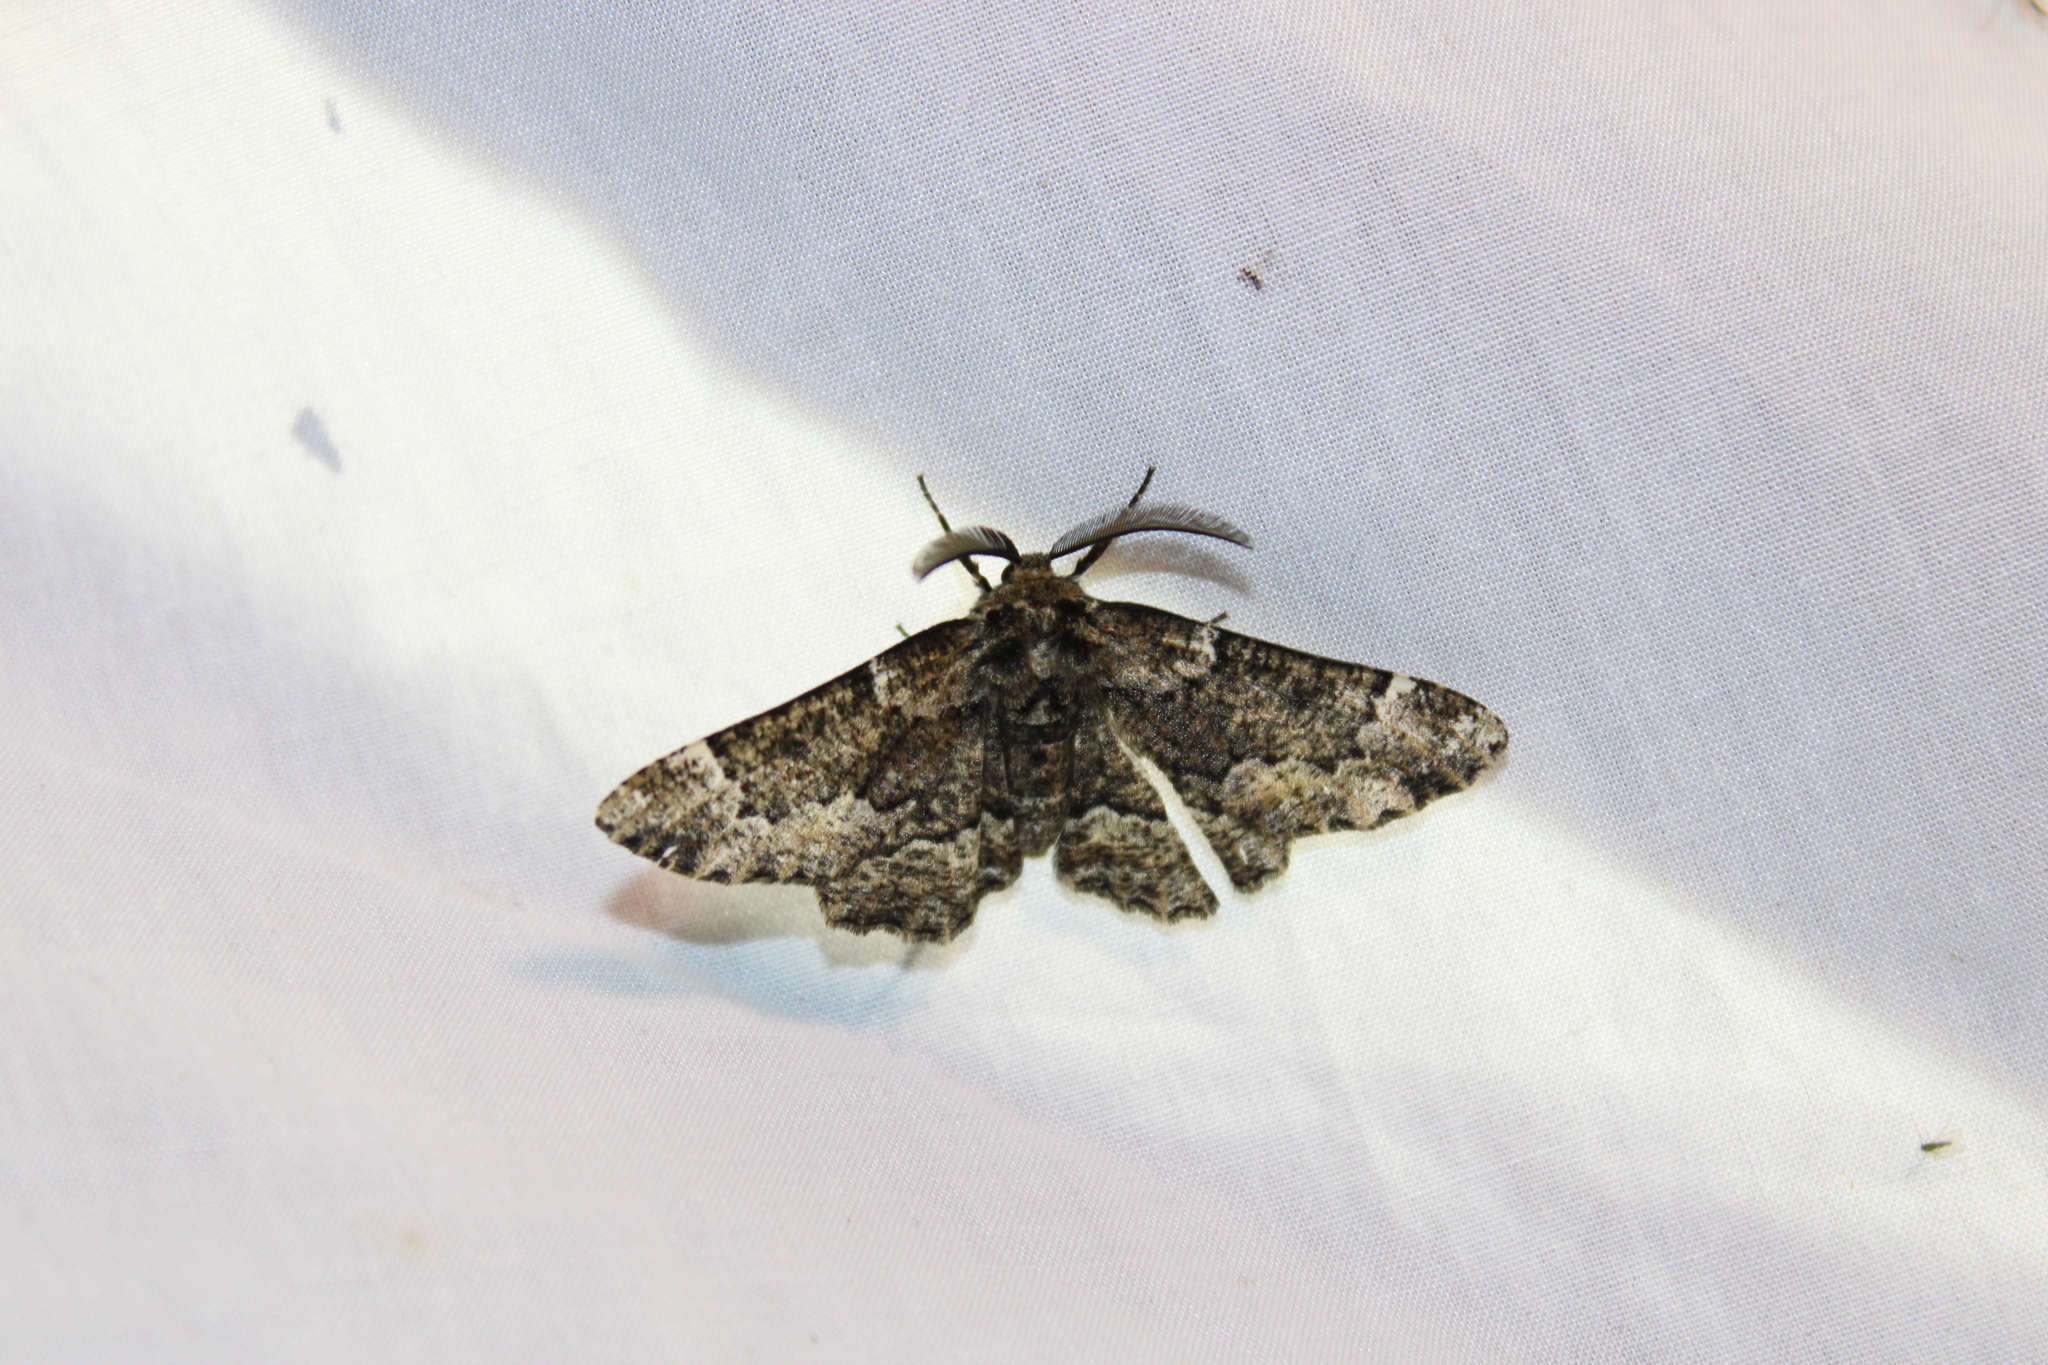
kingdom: Animalia
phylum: Arthropoda
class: Insecta
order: Lepidoptera
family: Geometridae
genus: Phaeoura
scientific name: Phaeoura quernaria
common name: Oak beauty
